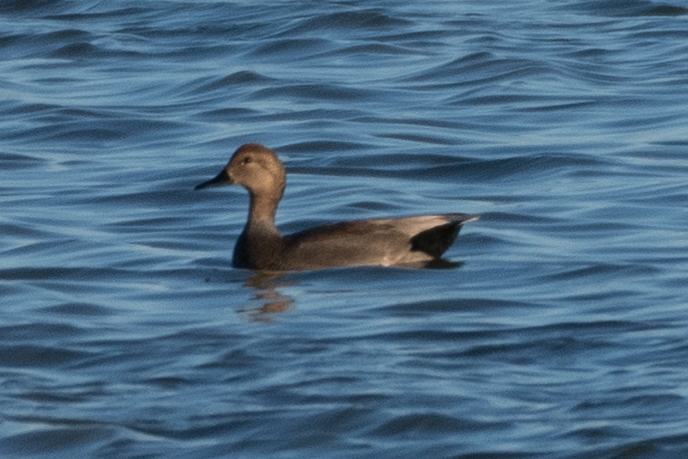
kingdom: Animalia
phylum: Chordata
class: Aves
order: Anseriformes
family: Anatidae
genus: Mareca
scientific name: Mareca strepera
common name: Gadwall
